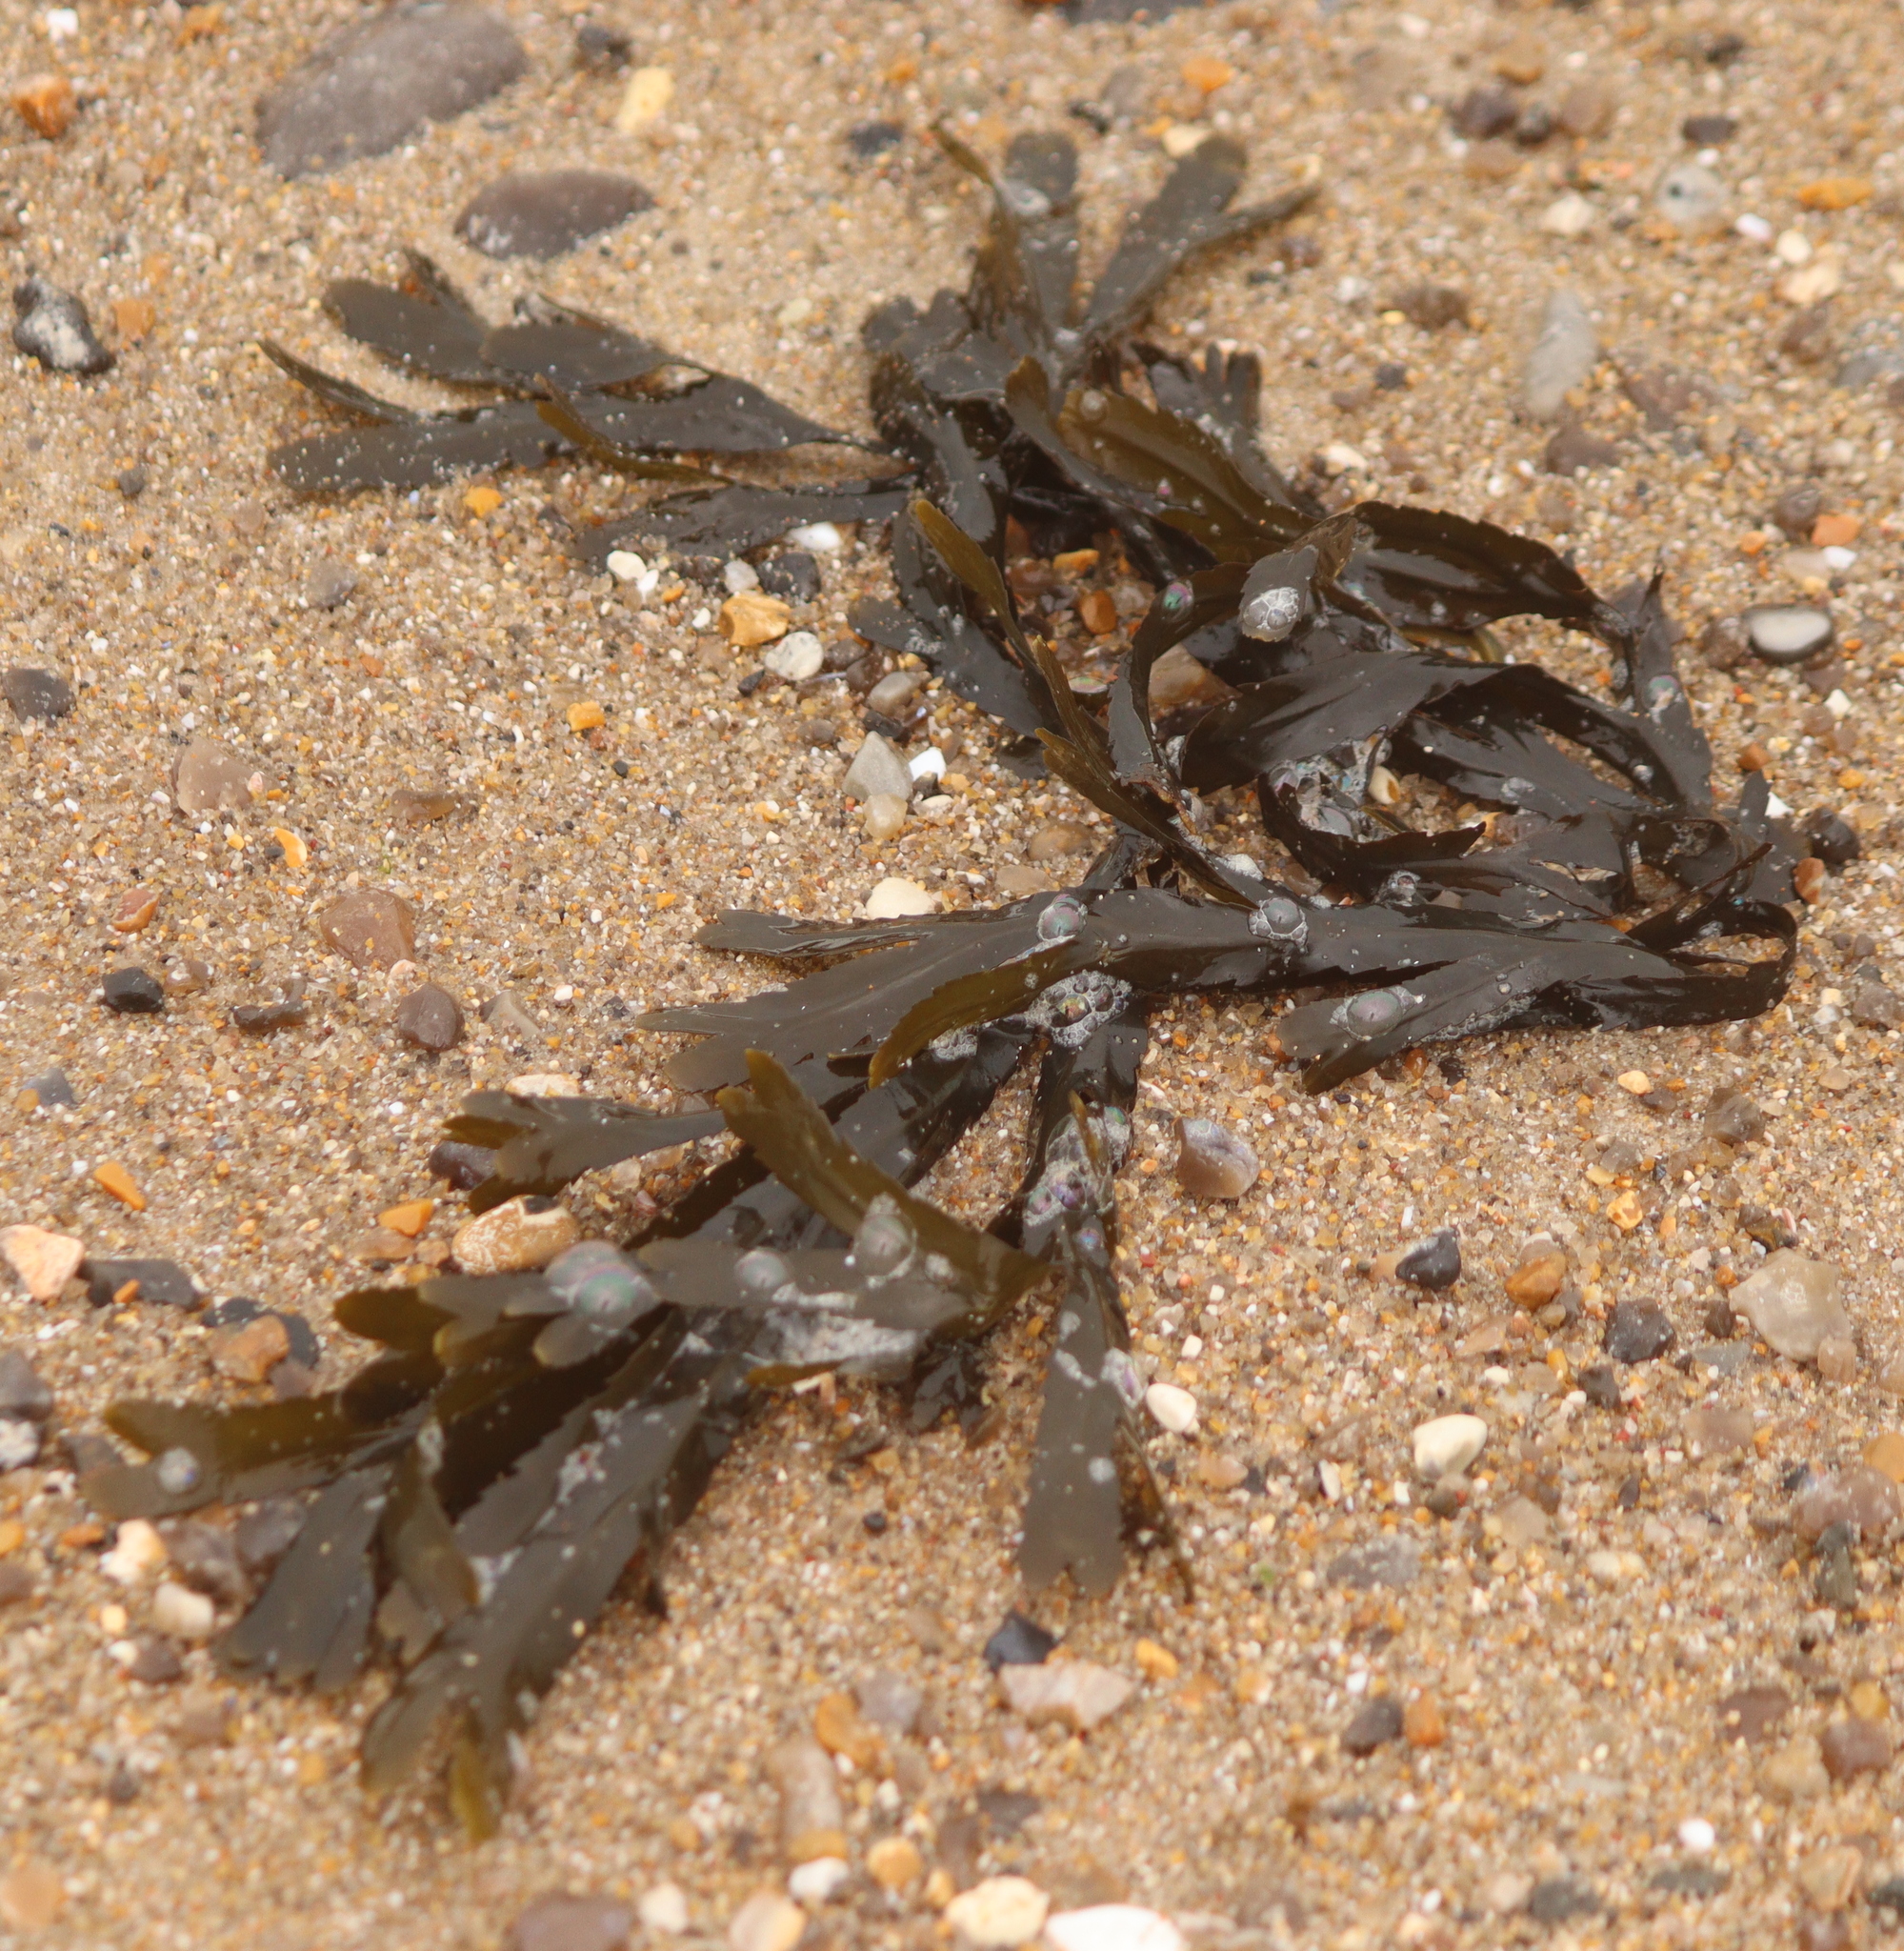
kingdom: Chromista
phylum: Ochrophyta
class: Phaeophyceae
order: Fucales
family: Fucaceae
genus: Fucus
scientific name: Fucus serratus
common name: Toothed wrack
